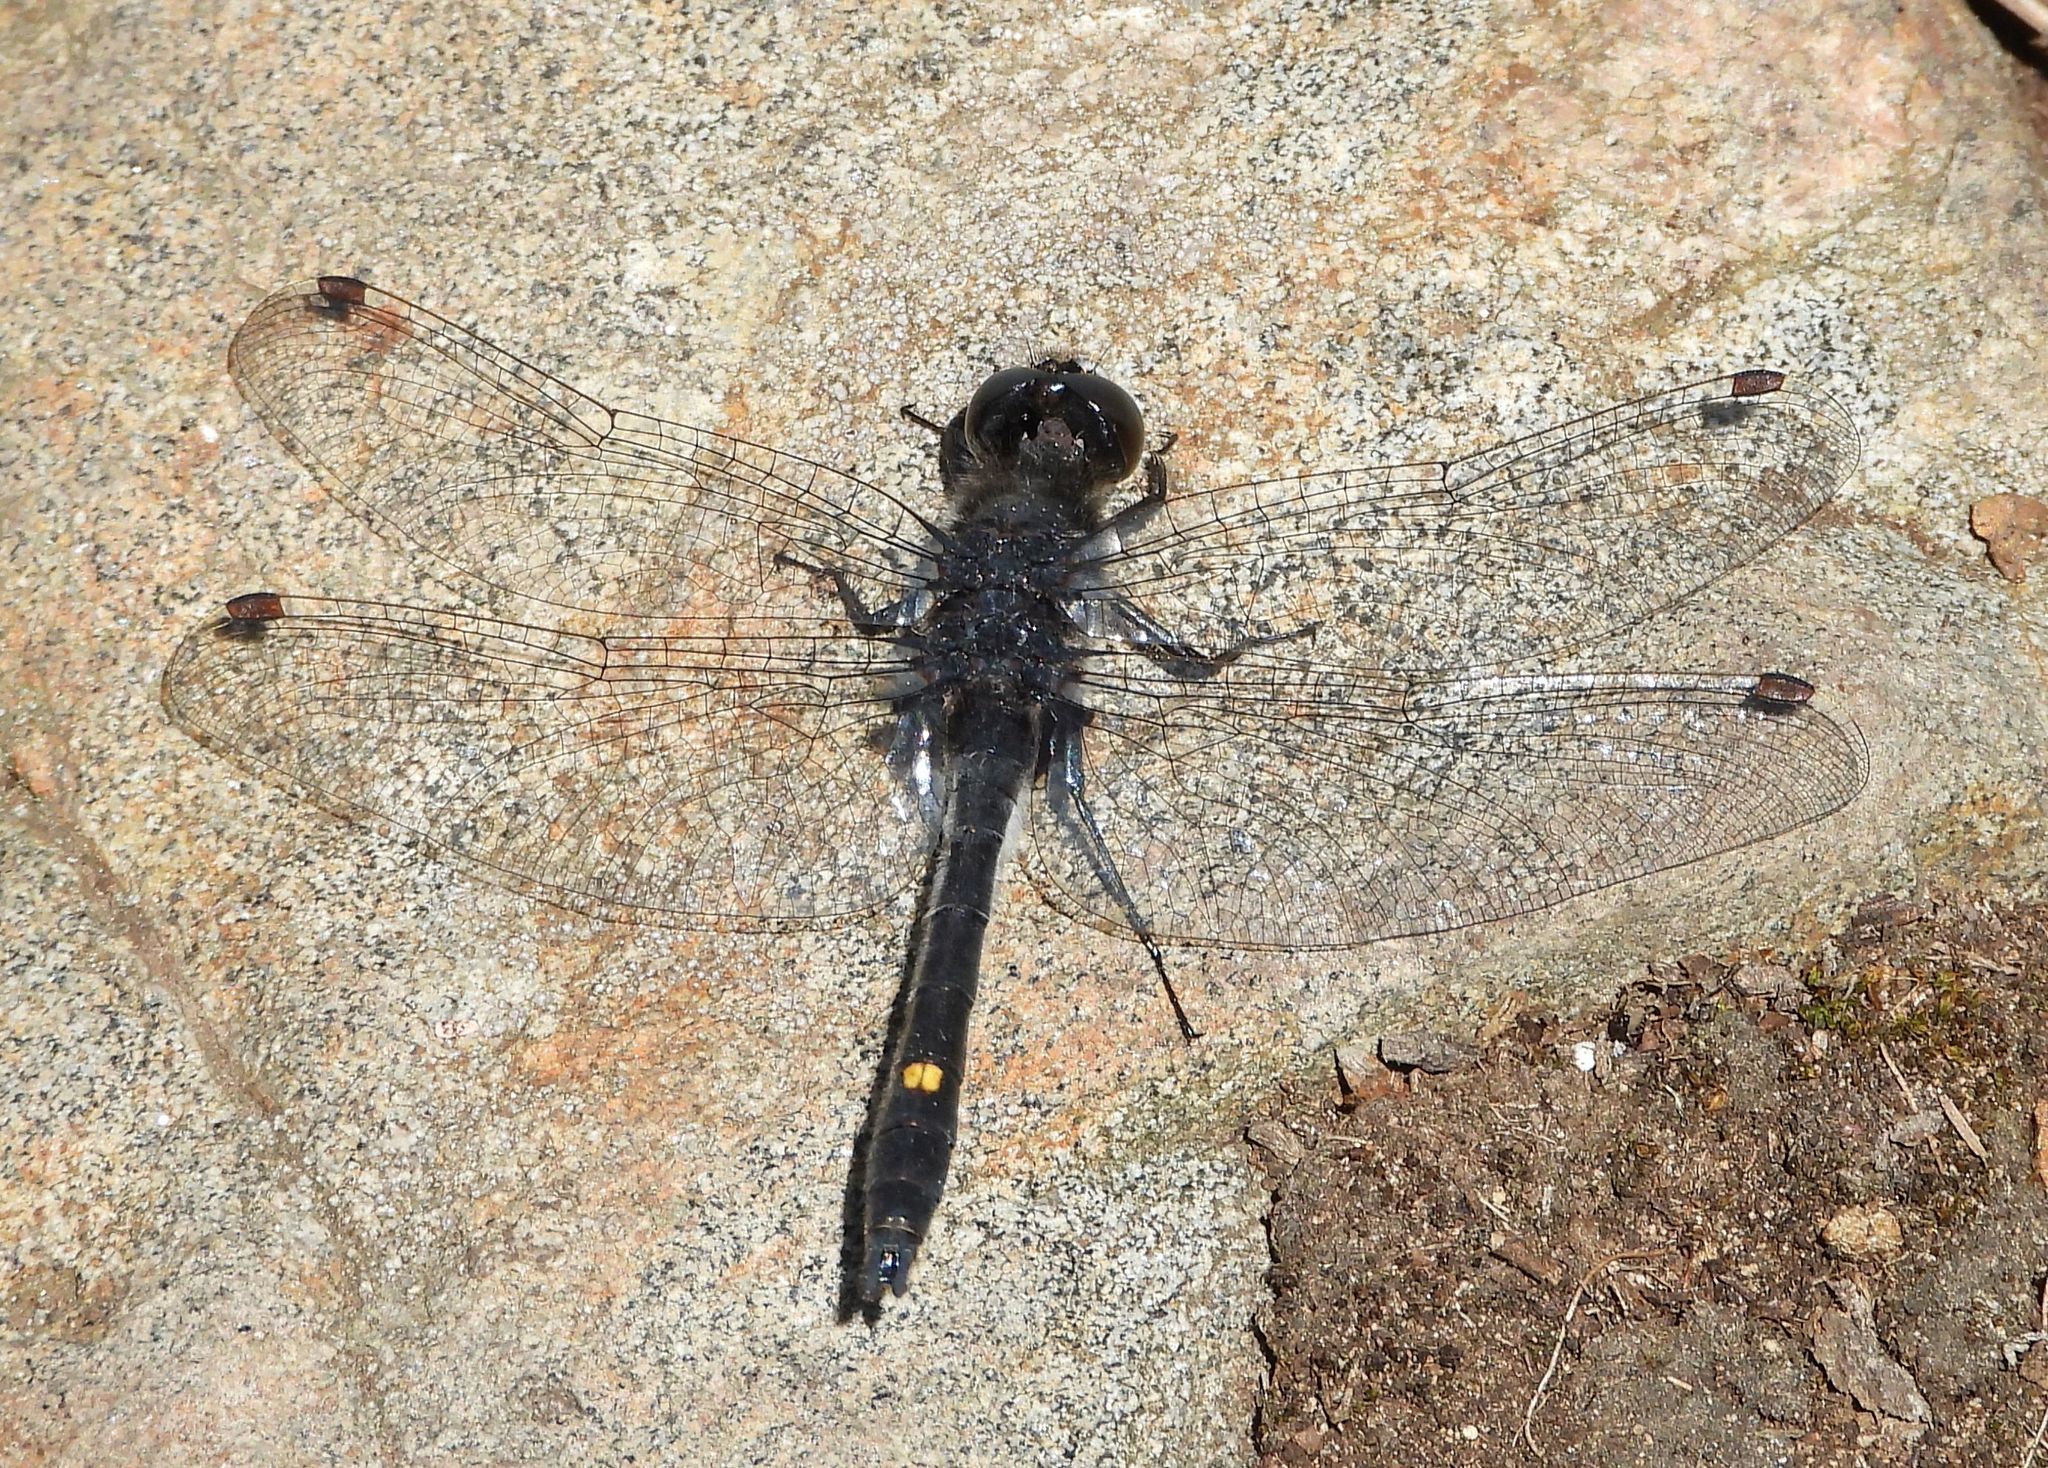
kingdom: Animalia
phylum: Arthropoda
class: Insecta
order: Odonata
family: Libellulidae
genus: Leucorrhinia
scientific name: Leucorrhinia intacta
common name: Dot-tailed whiteface
